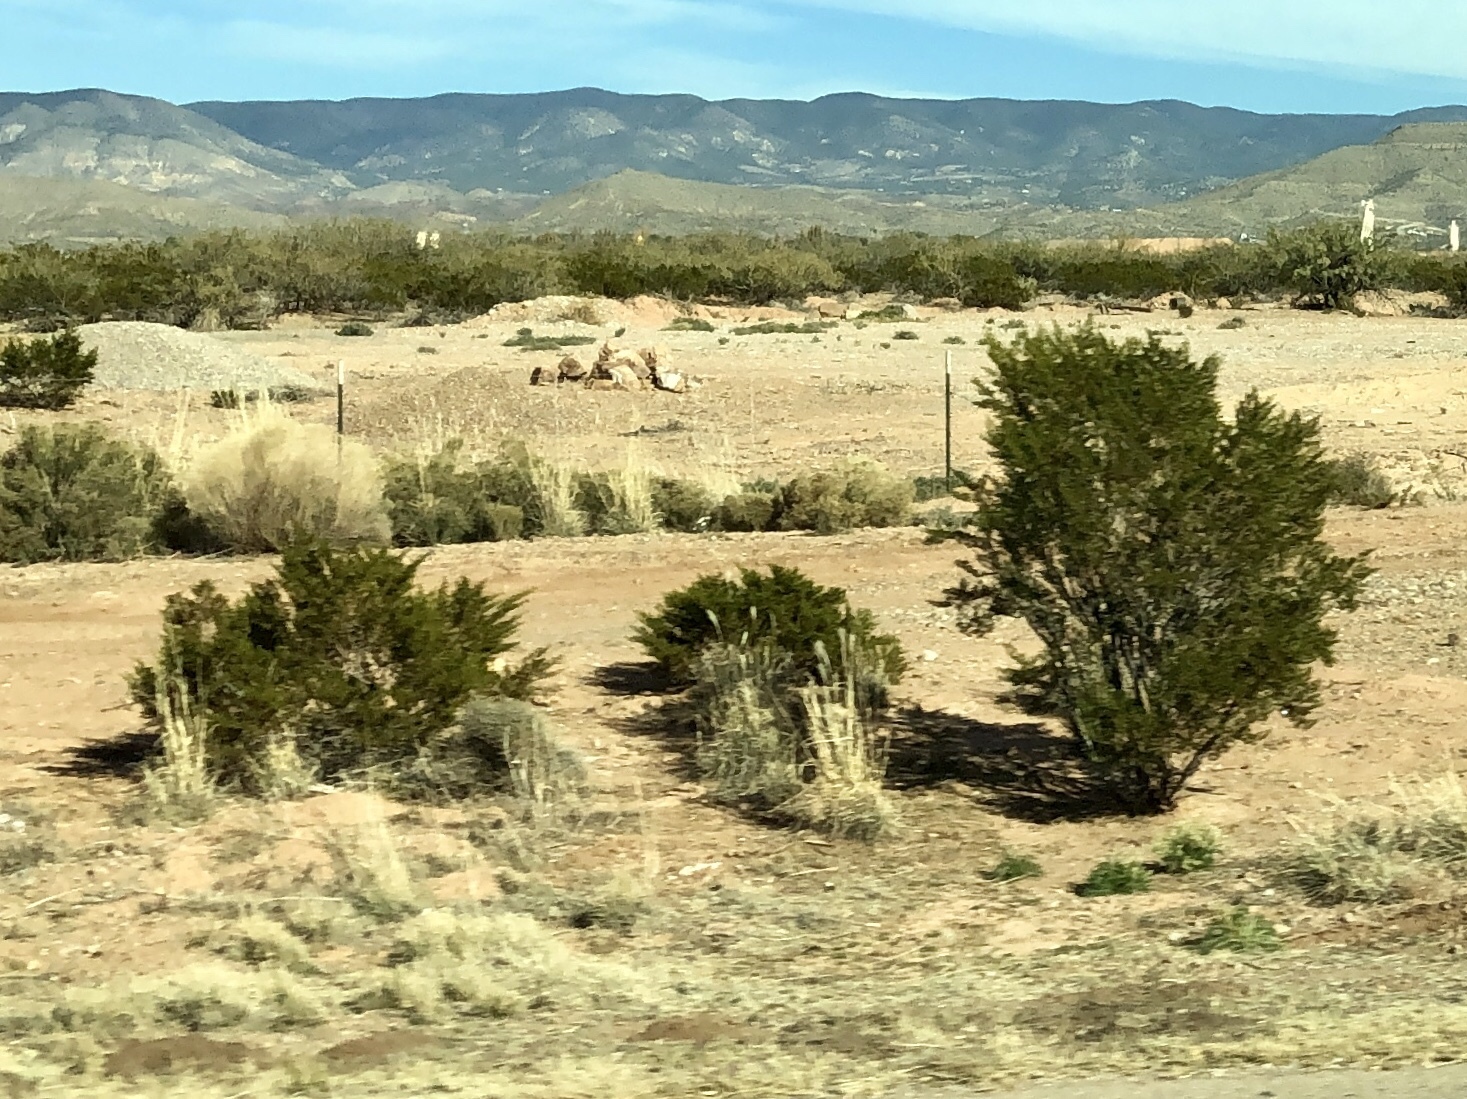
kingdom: Plantae
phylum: Tracheophyta
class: Magnoliopsida
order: Zygophyllales
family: Zygophyllaceae
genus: Larrea
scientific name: Larrea tridentata
